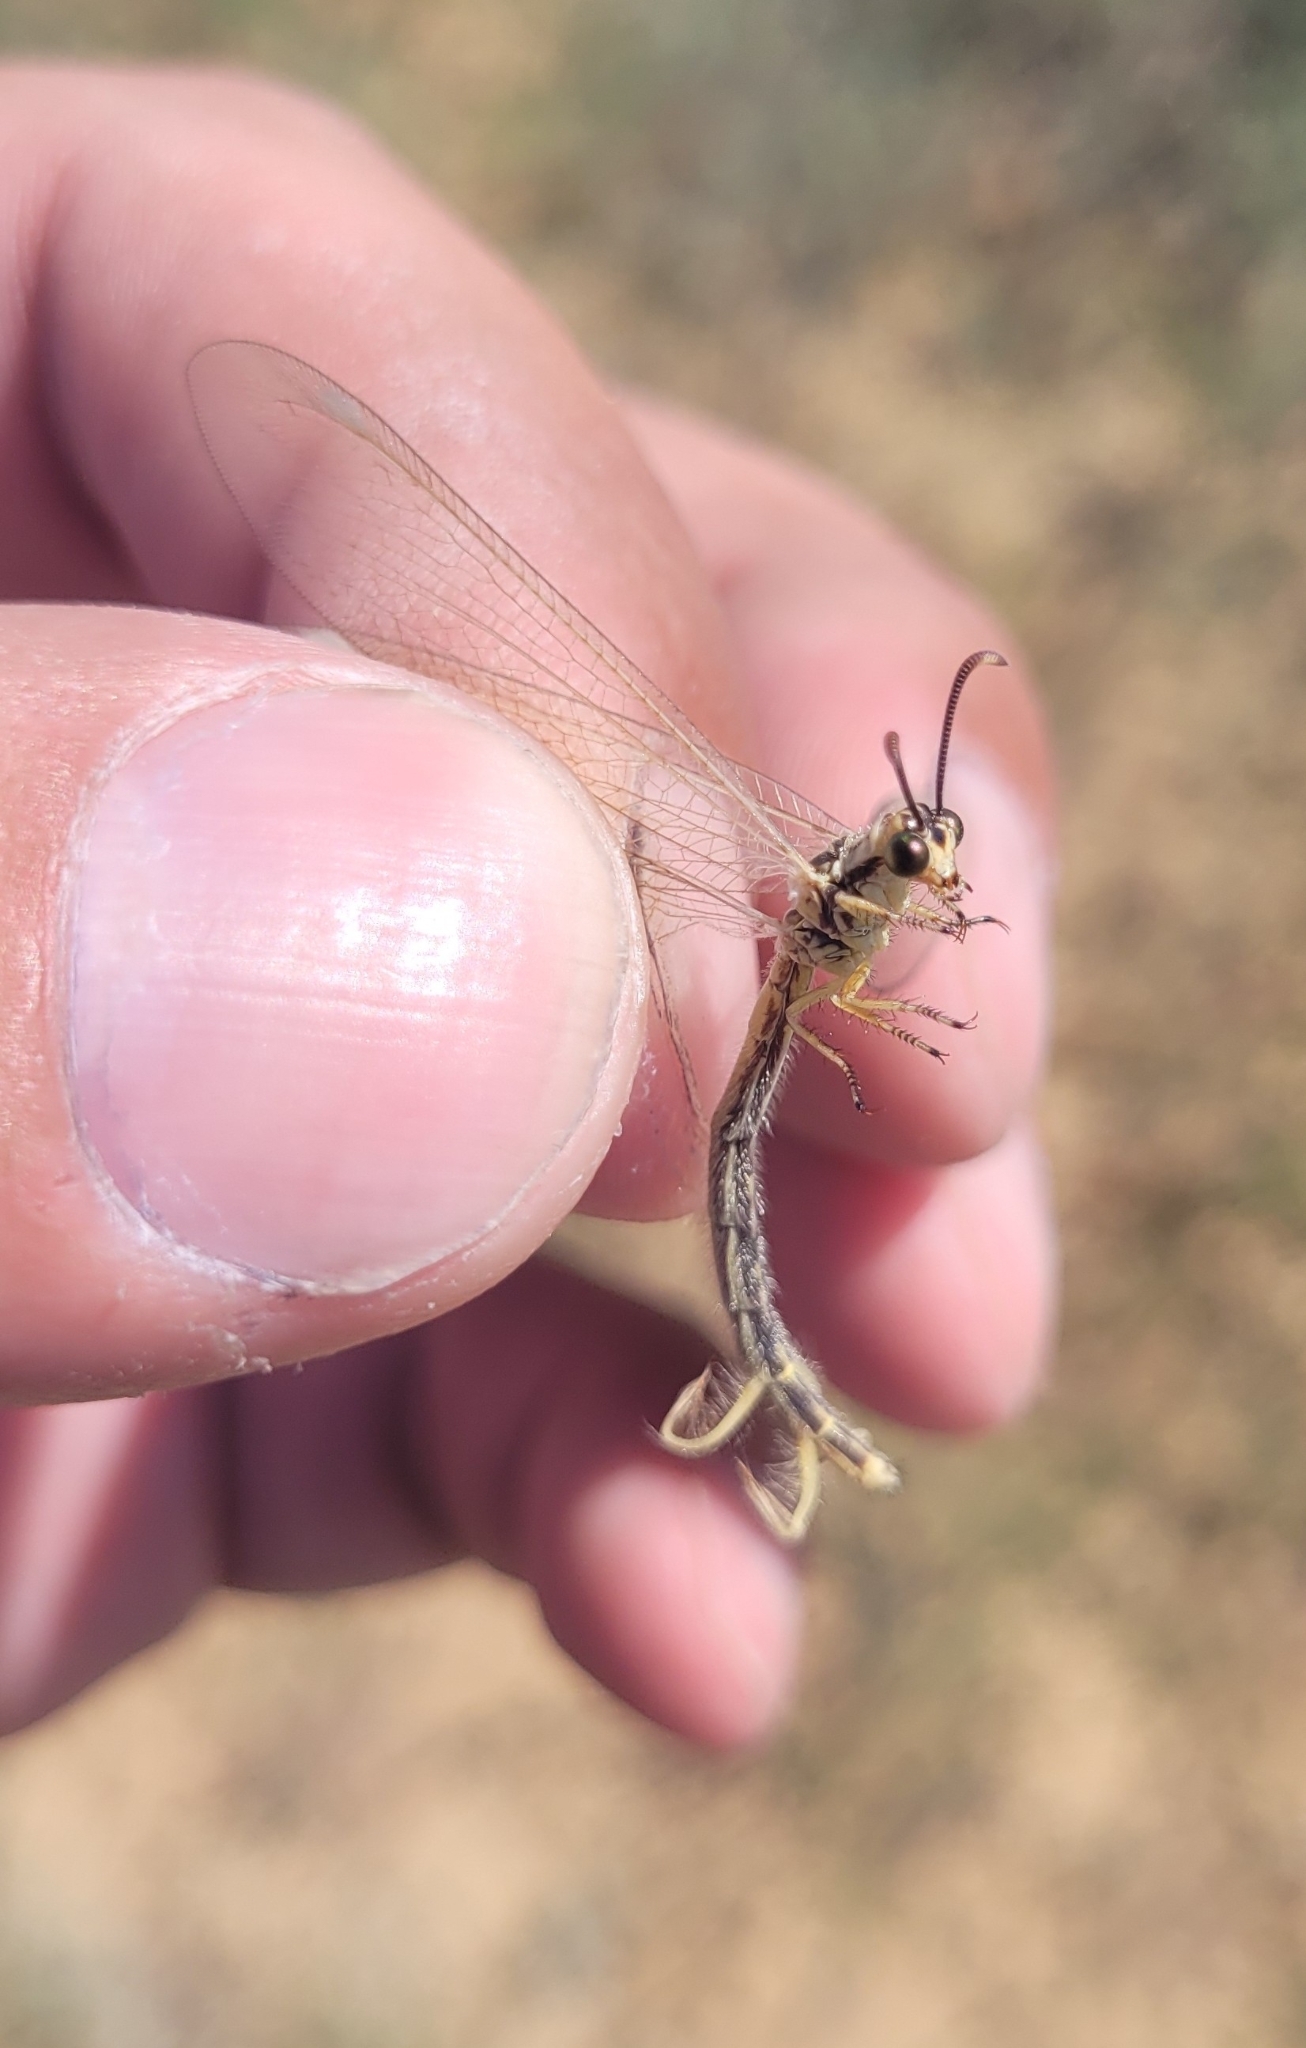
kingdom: Animalia
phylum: Arthropoda
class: Insecta
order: Neuroptera
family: Myrmeleontidae
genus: Myrmecaelurus
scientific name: Myrmecaelurus trigrammus
